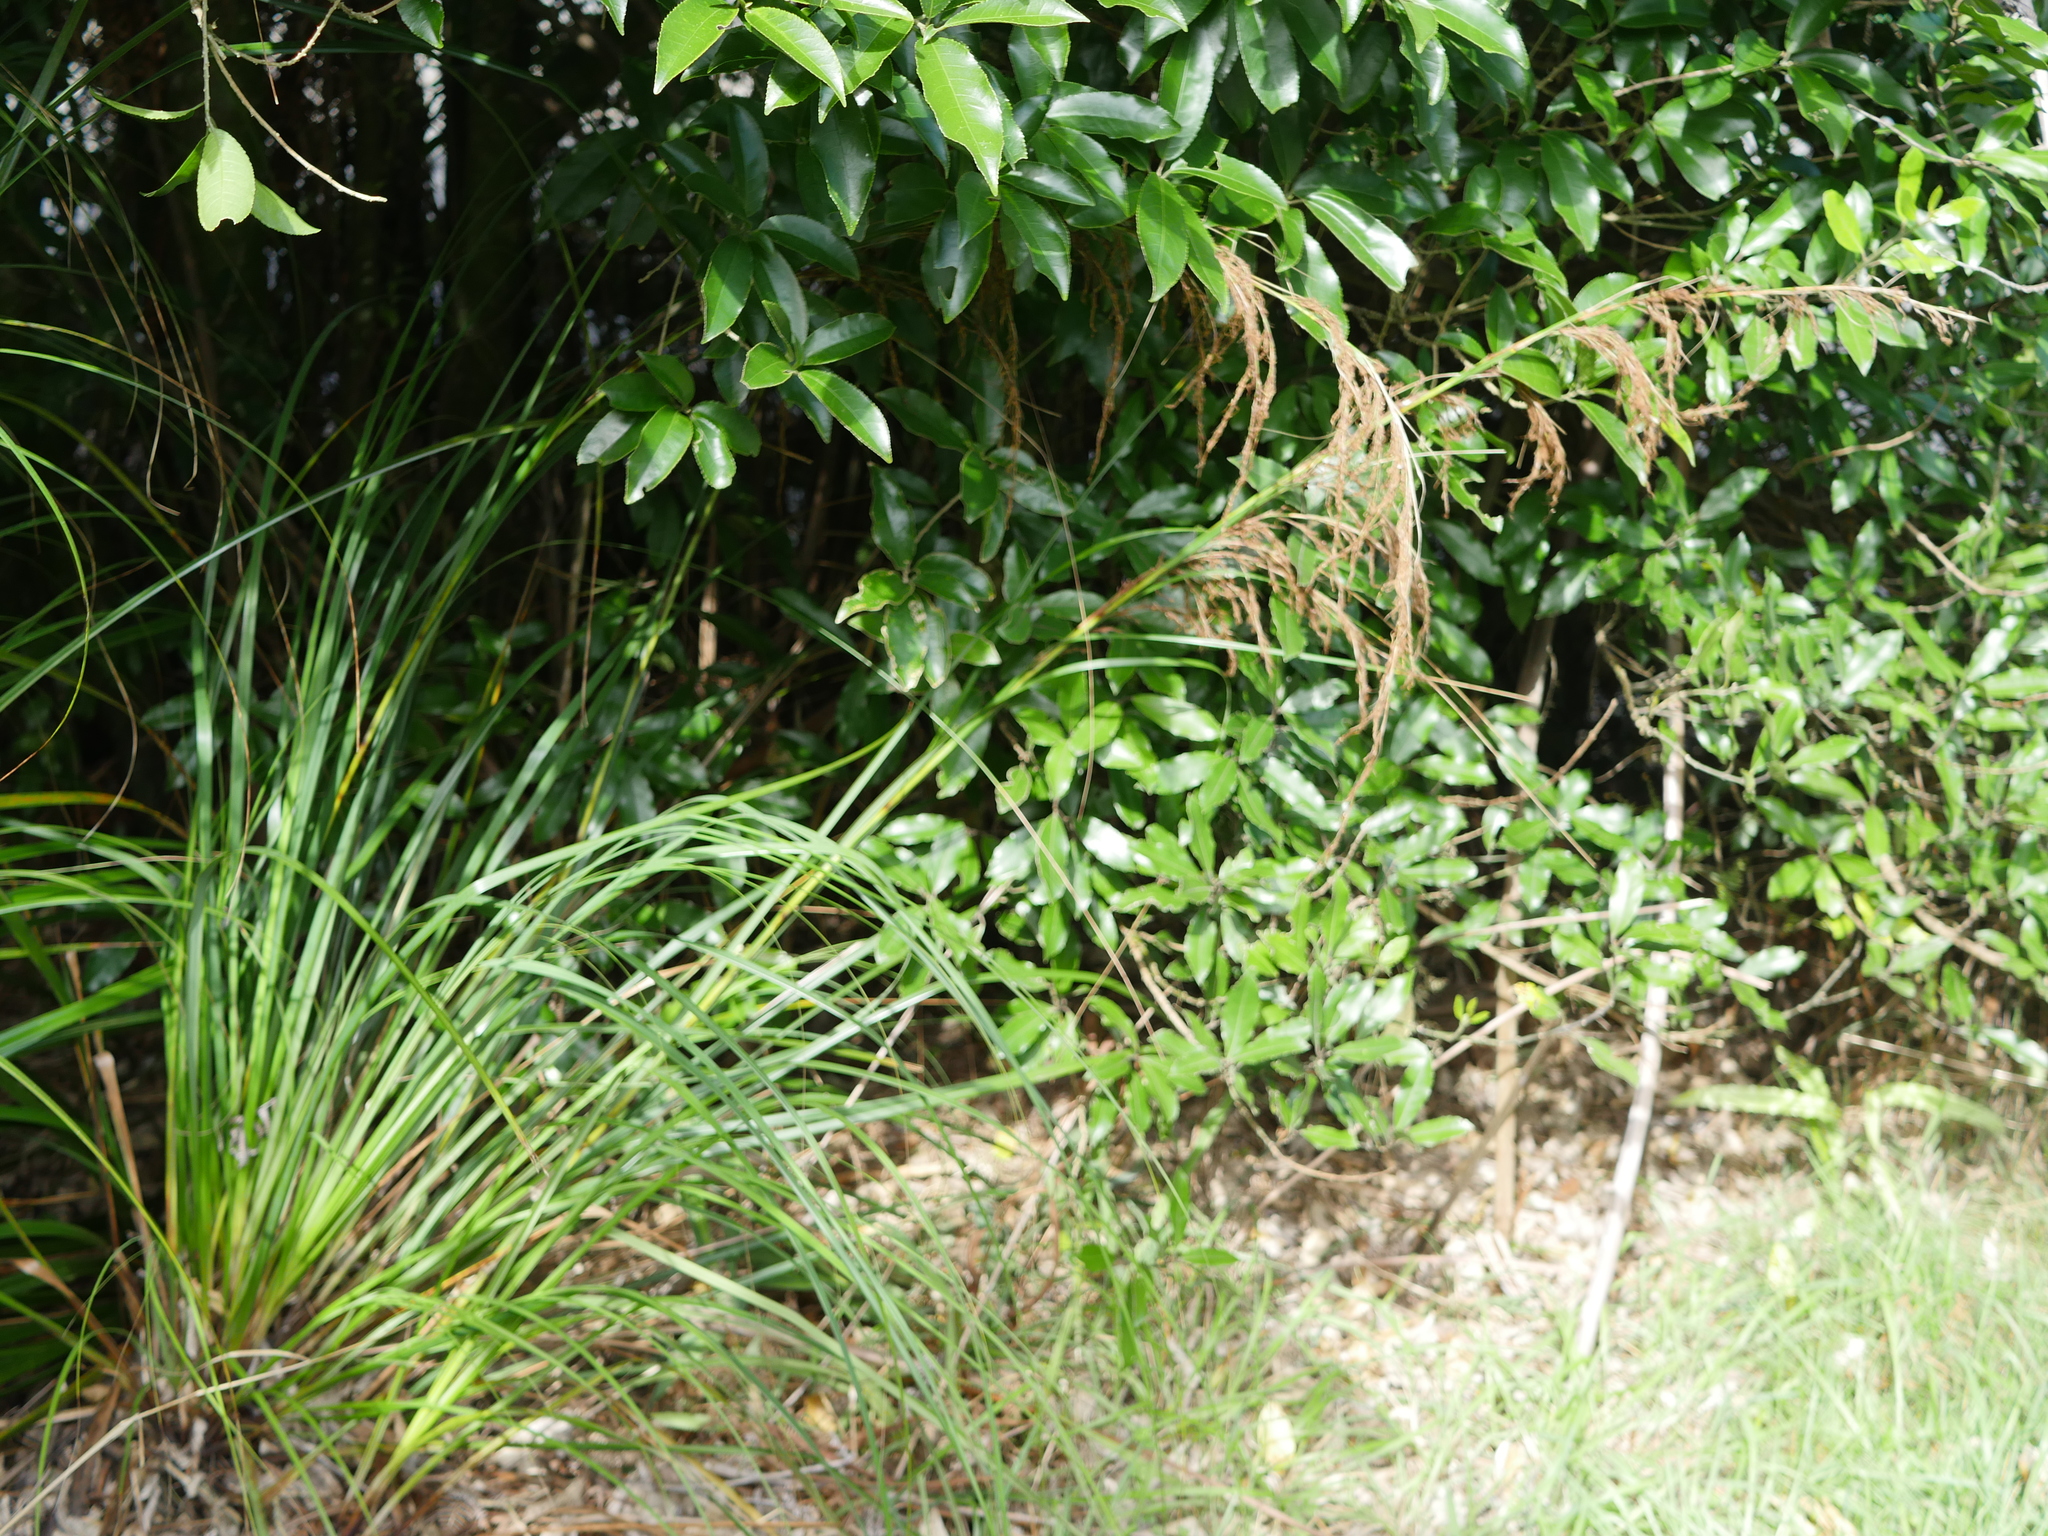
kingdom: Plantae
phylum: Tracheophyta
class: Liliopsida
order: Poales
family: Cyperaceae
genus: Gahnia
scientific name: Gahnia setifolia
